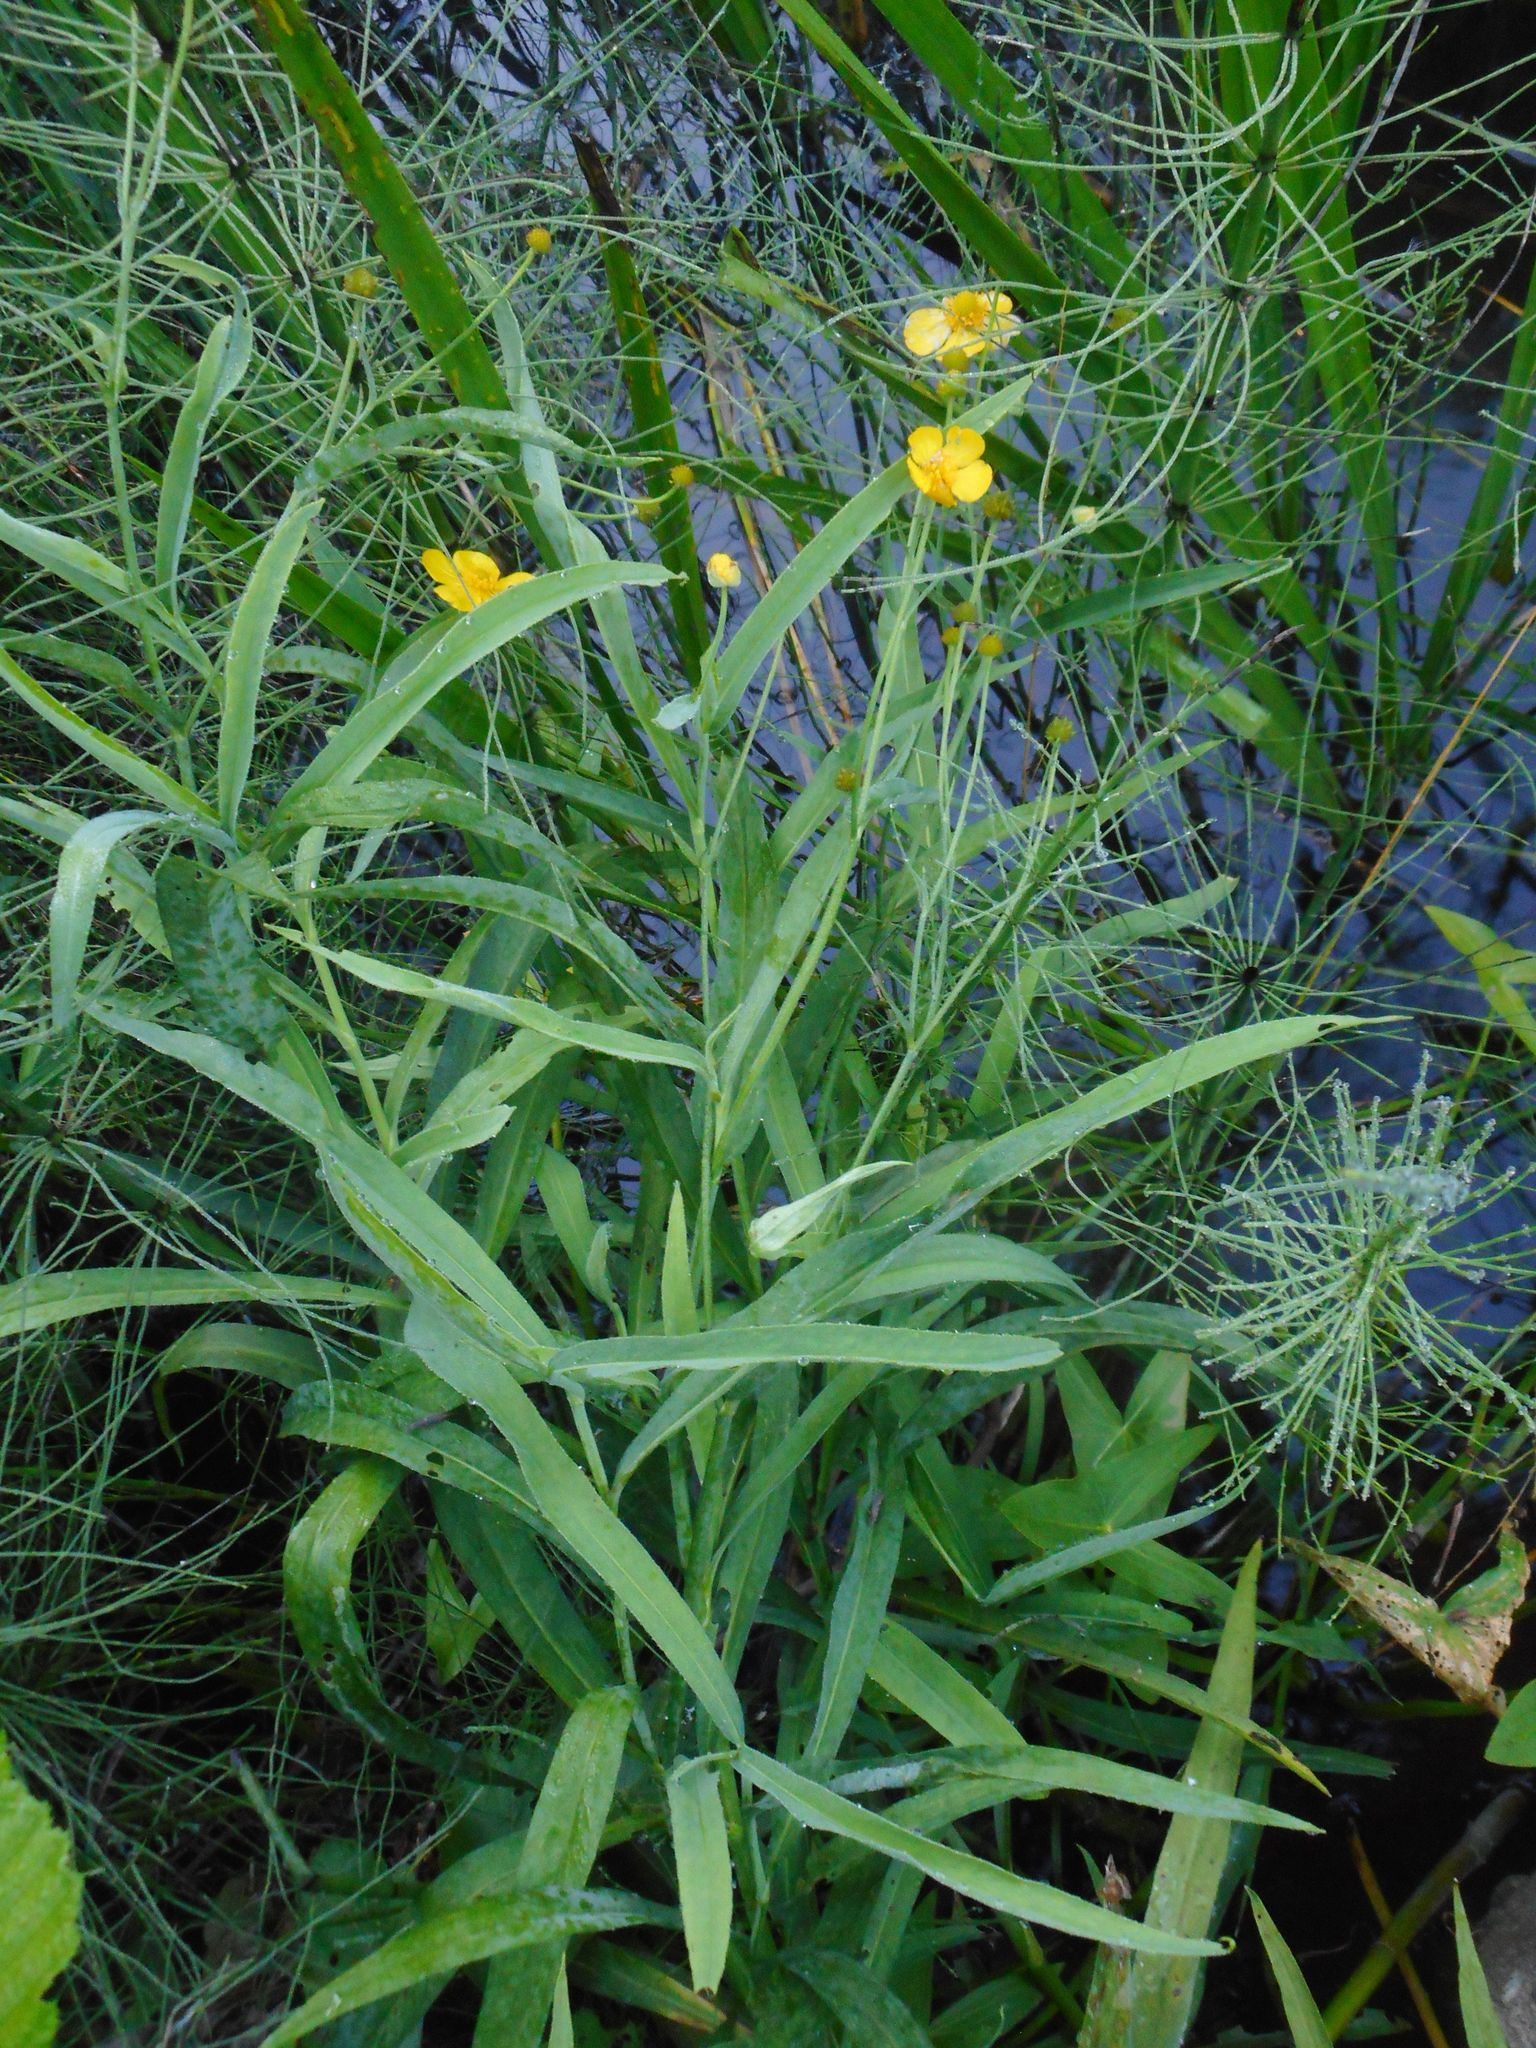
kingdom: Plantae
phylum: Tracheophyta
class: Magnoliopsida
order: Ranunculales
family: Ranunculaceae
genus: Ranunculus
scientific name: Ranunculus lingua
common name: Greater spearwort
